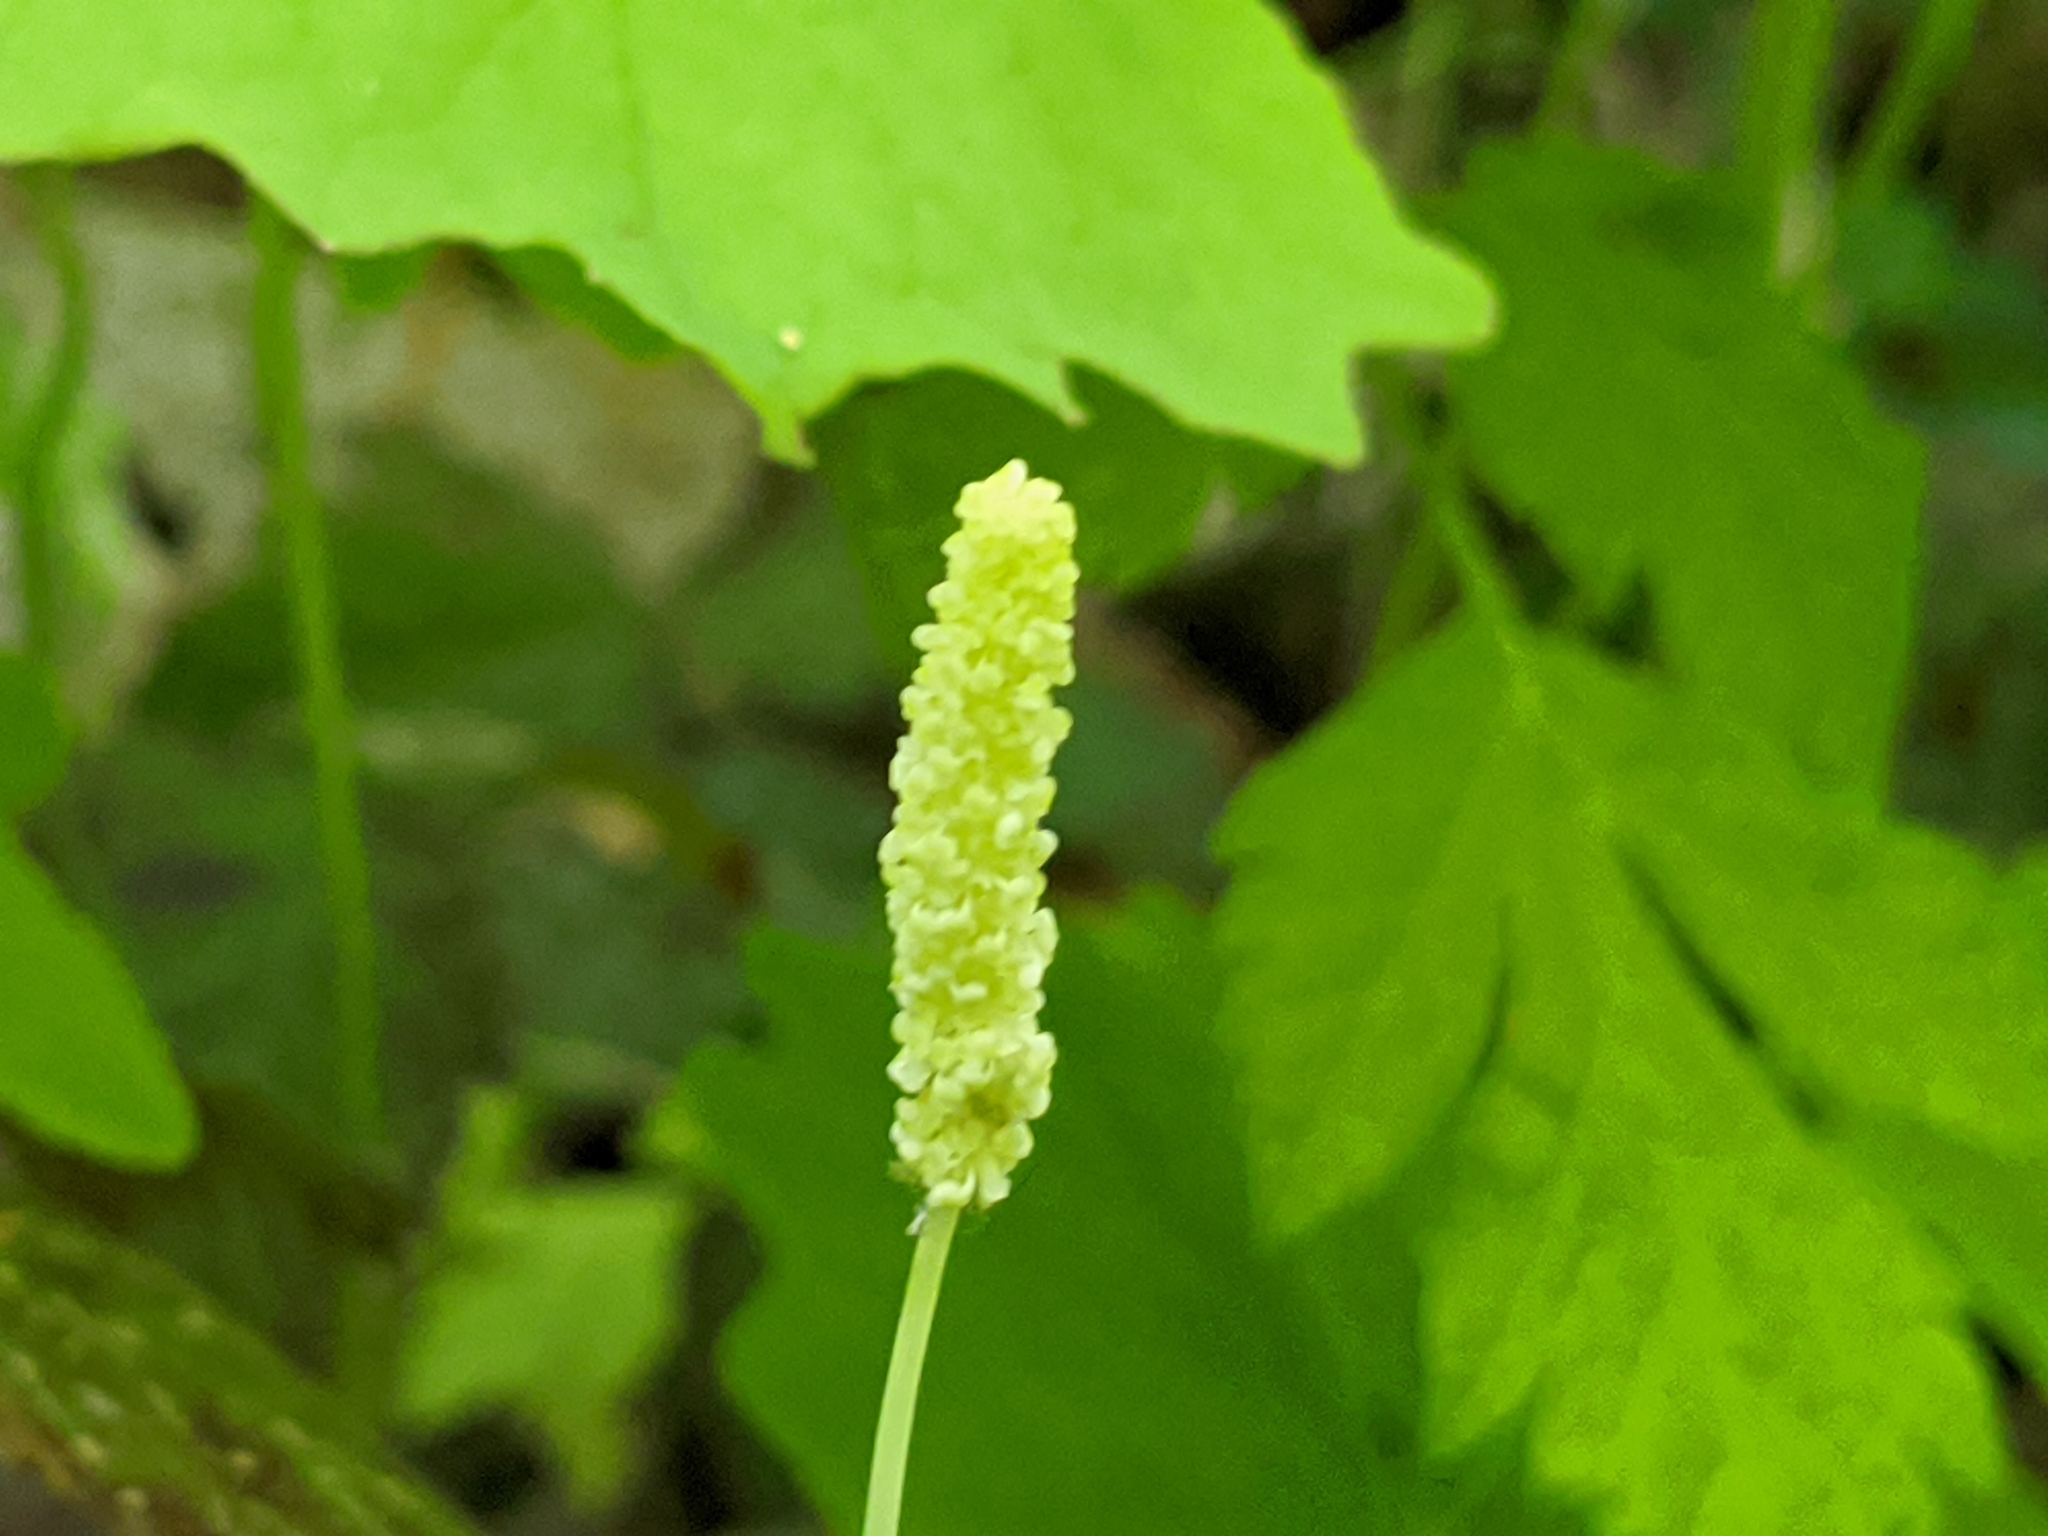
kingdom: Plantae
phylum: Tracheophyta
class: Magnoliopsida
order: Ranunculales
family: Berberidaceae
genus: Achlys
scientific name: Achlys californica
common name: California deer-foot
